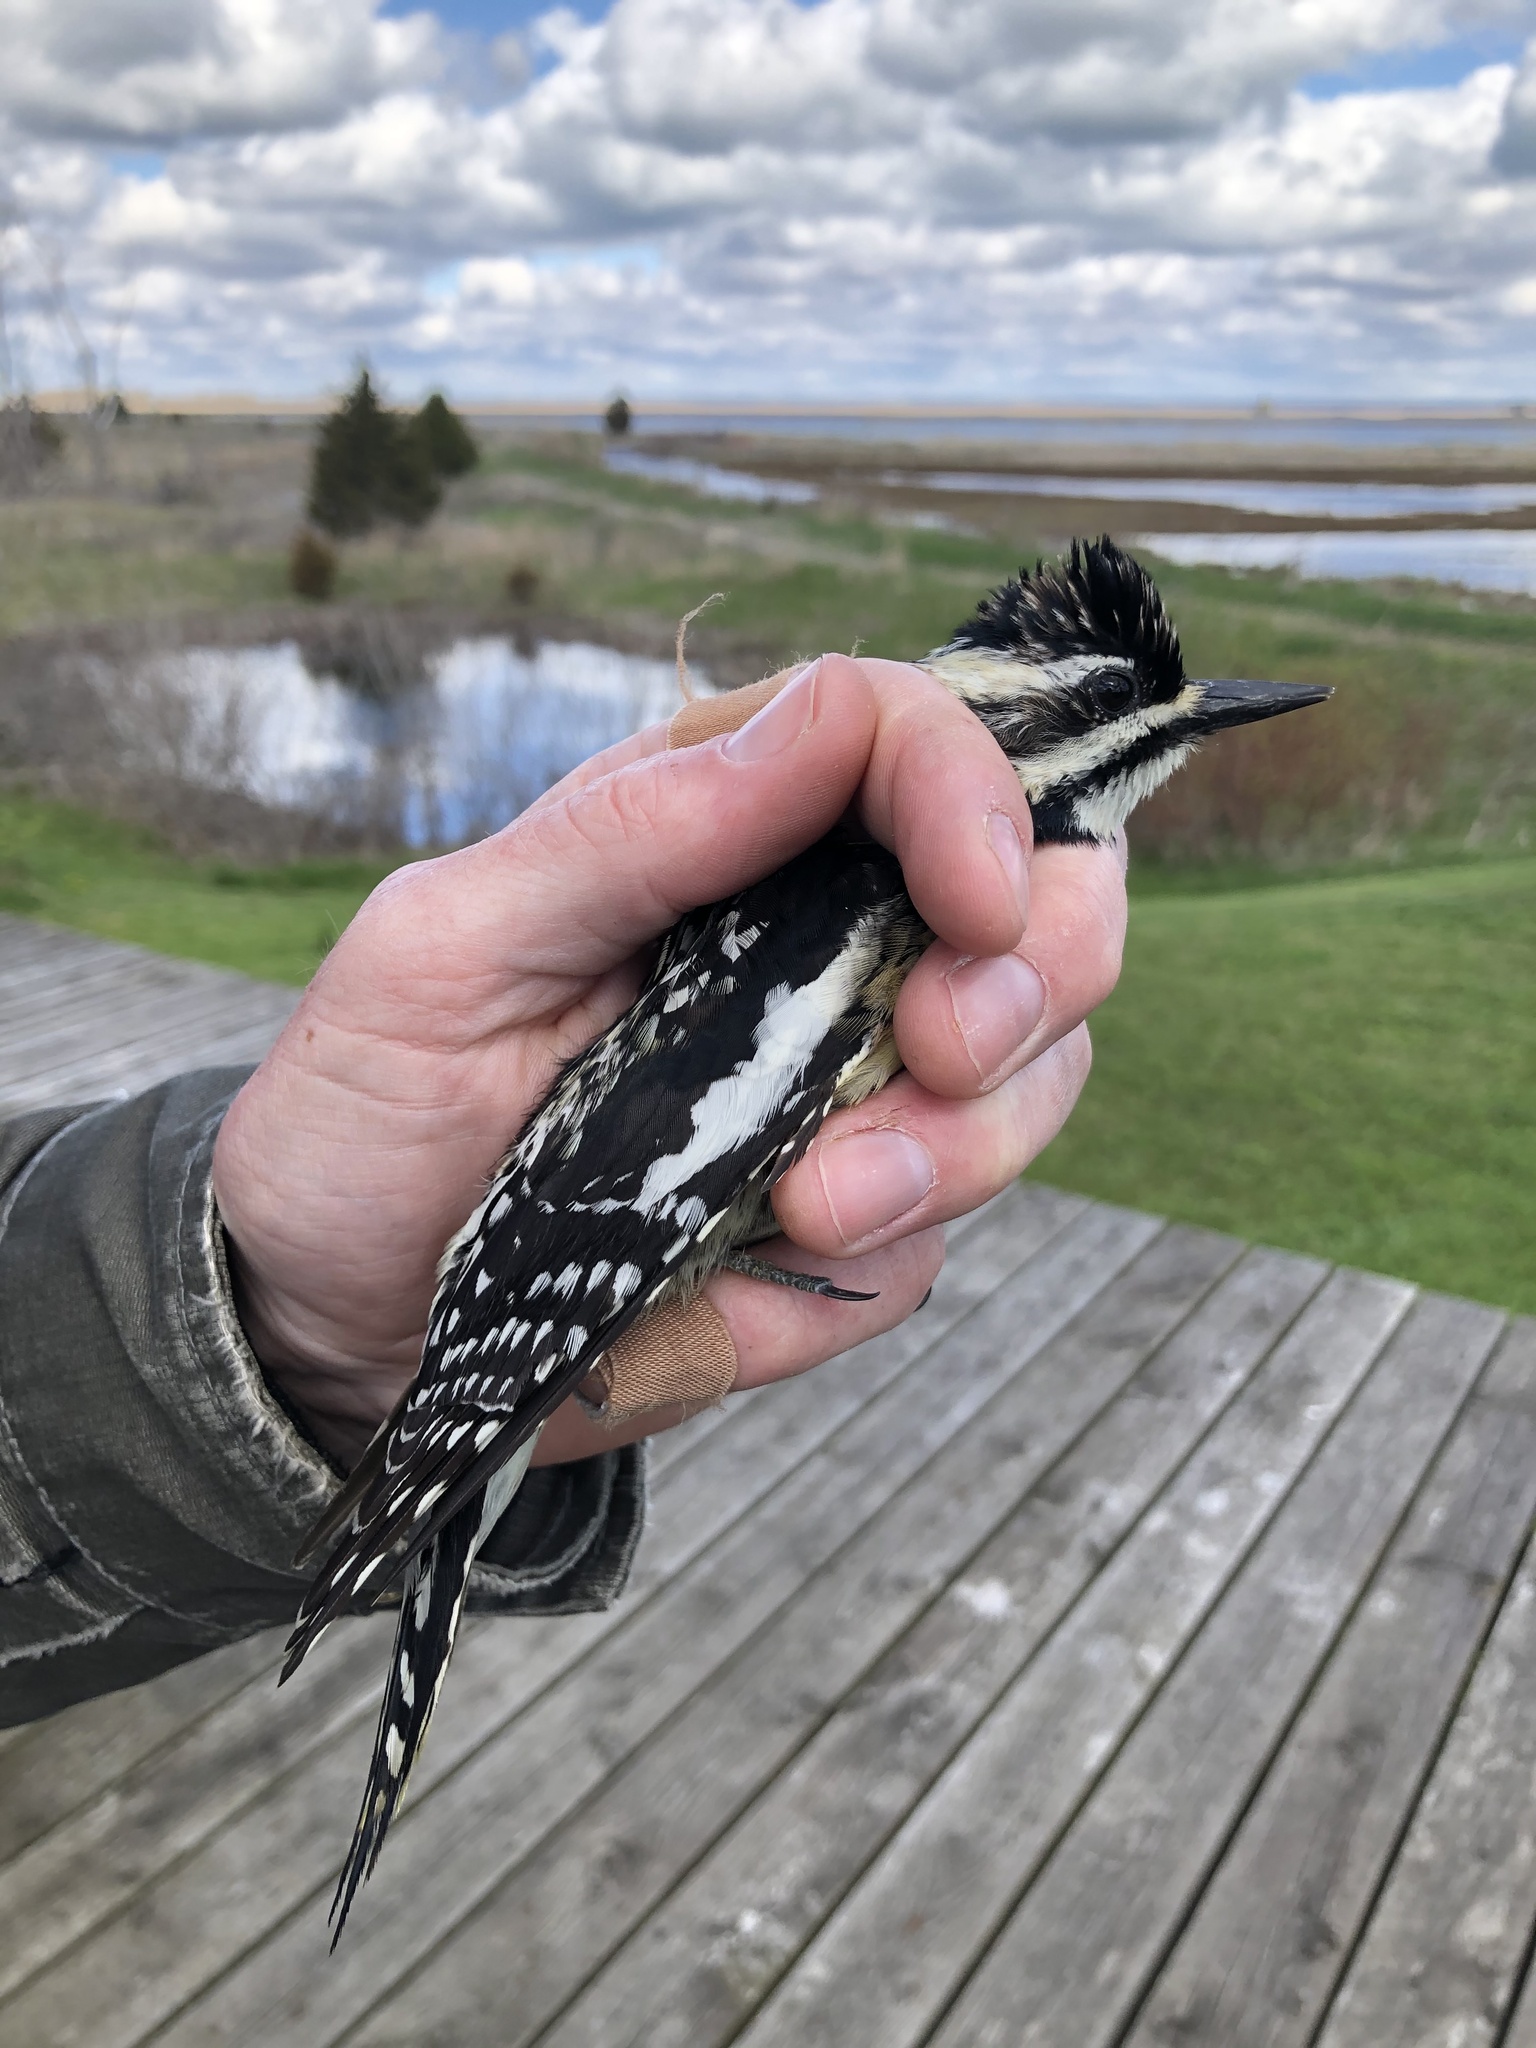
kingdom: Animalia
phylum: Chordata
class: Aves
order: Piciformes
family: Picidae
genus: Sphyrapicus
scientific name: Sphyrapicus varius
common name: Yellow-bellied sapsucker
